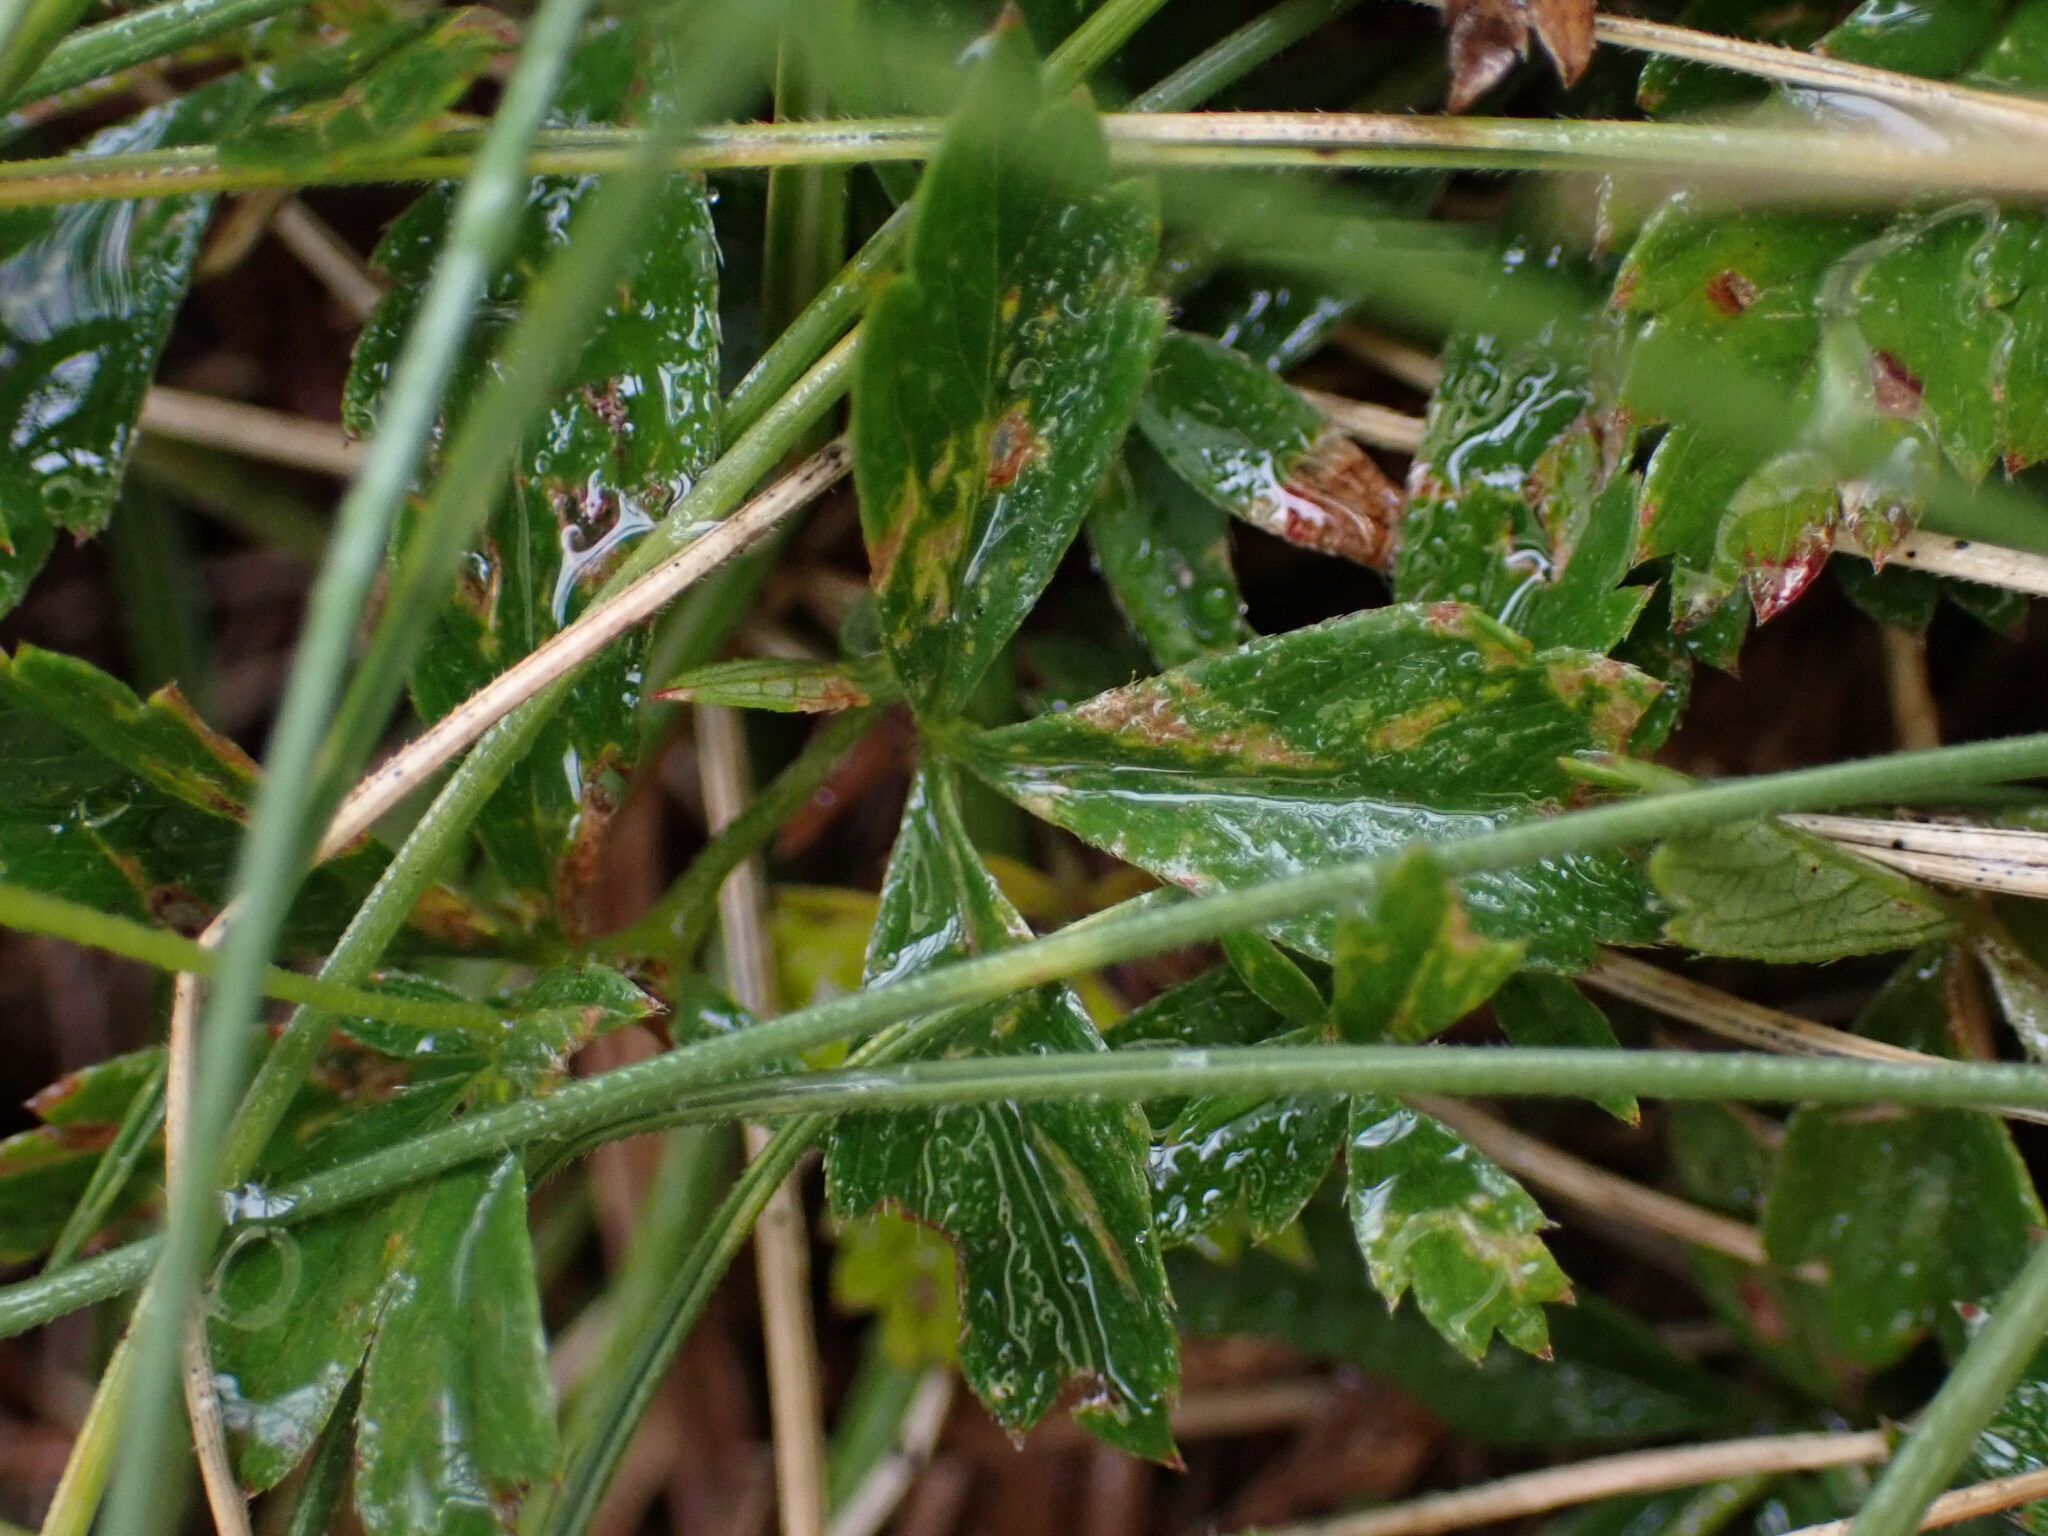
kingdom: Plantae
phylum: Tracheophyta
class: Magnoliopsida
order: Rosales
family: Rosaceae
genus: Potentilla
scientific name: Potentilla erecta
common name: Tormentil
